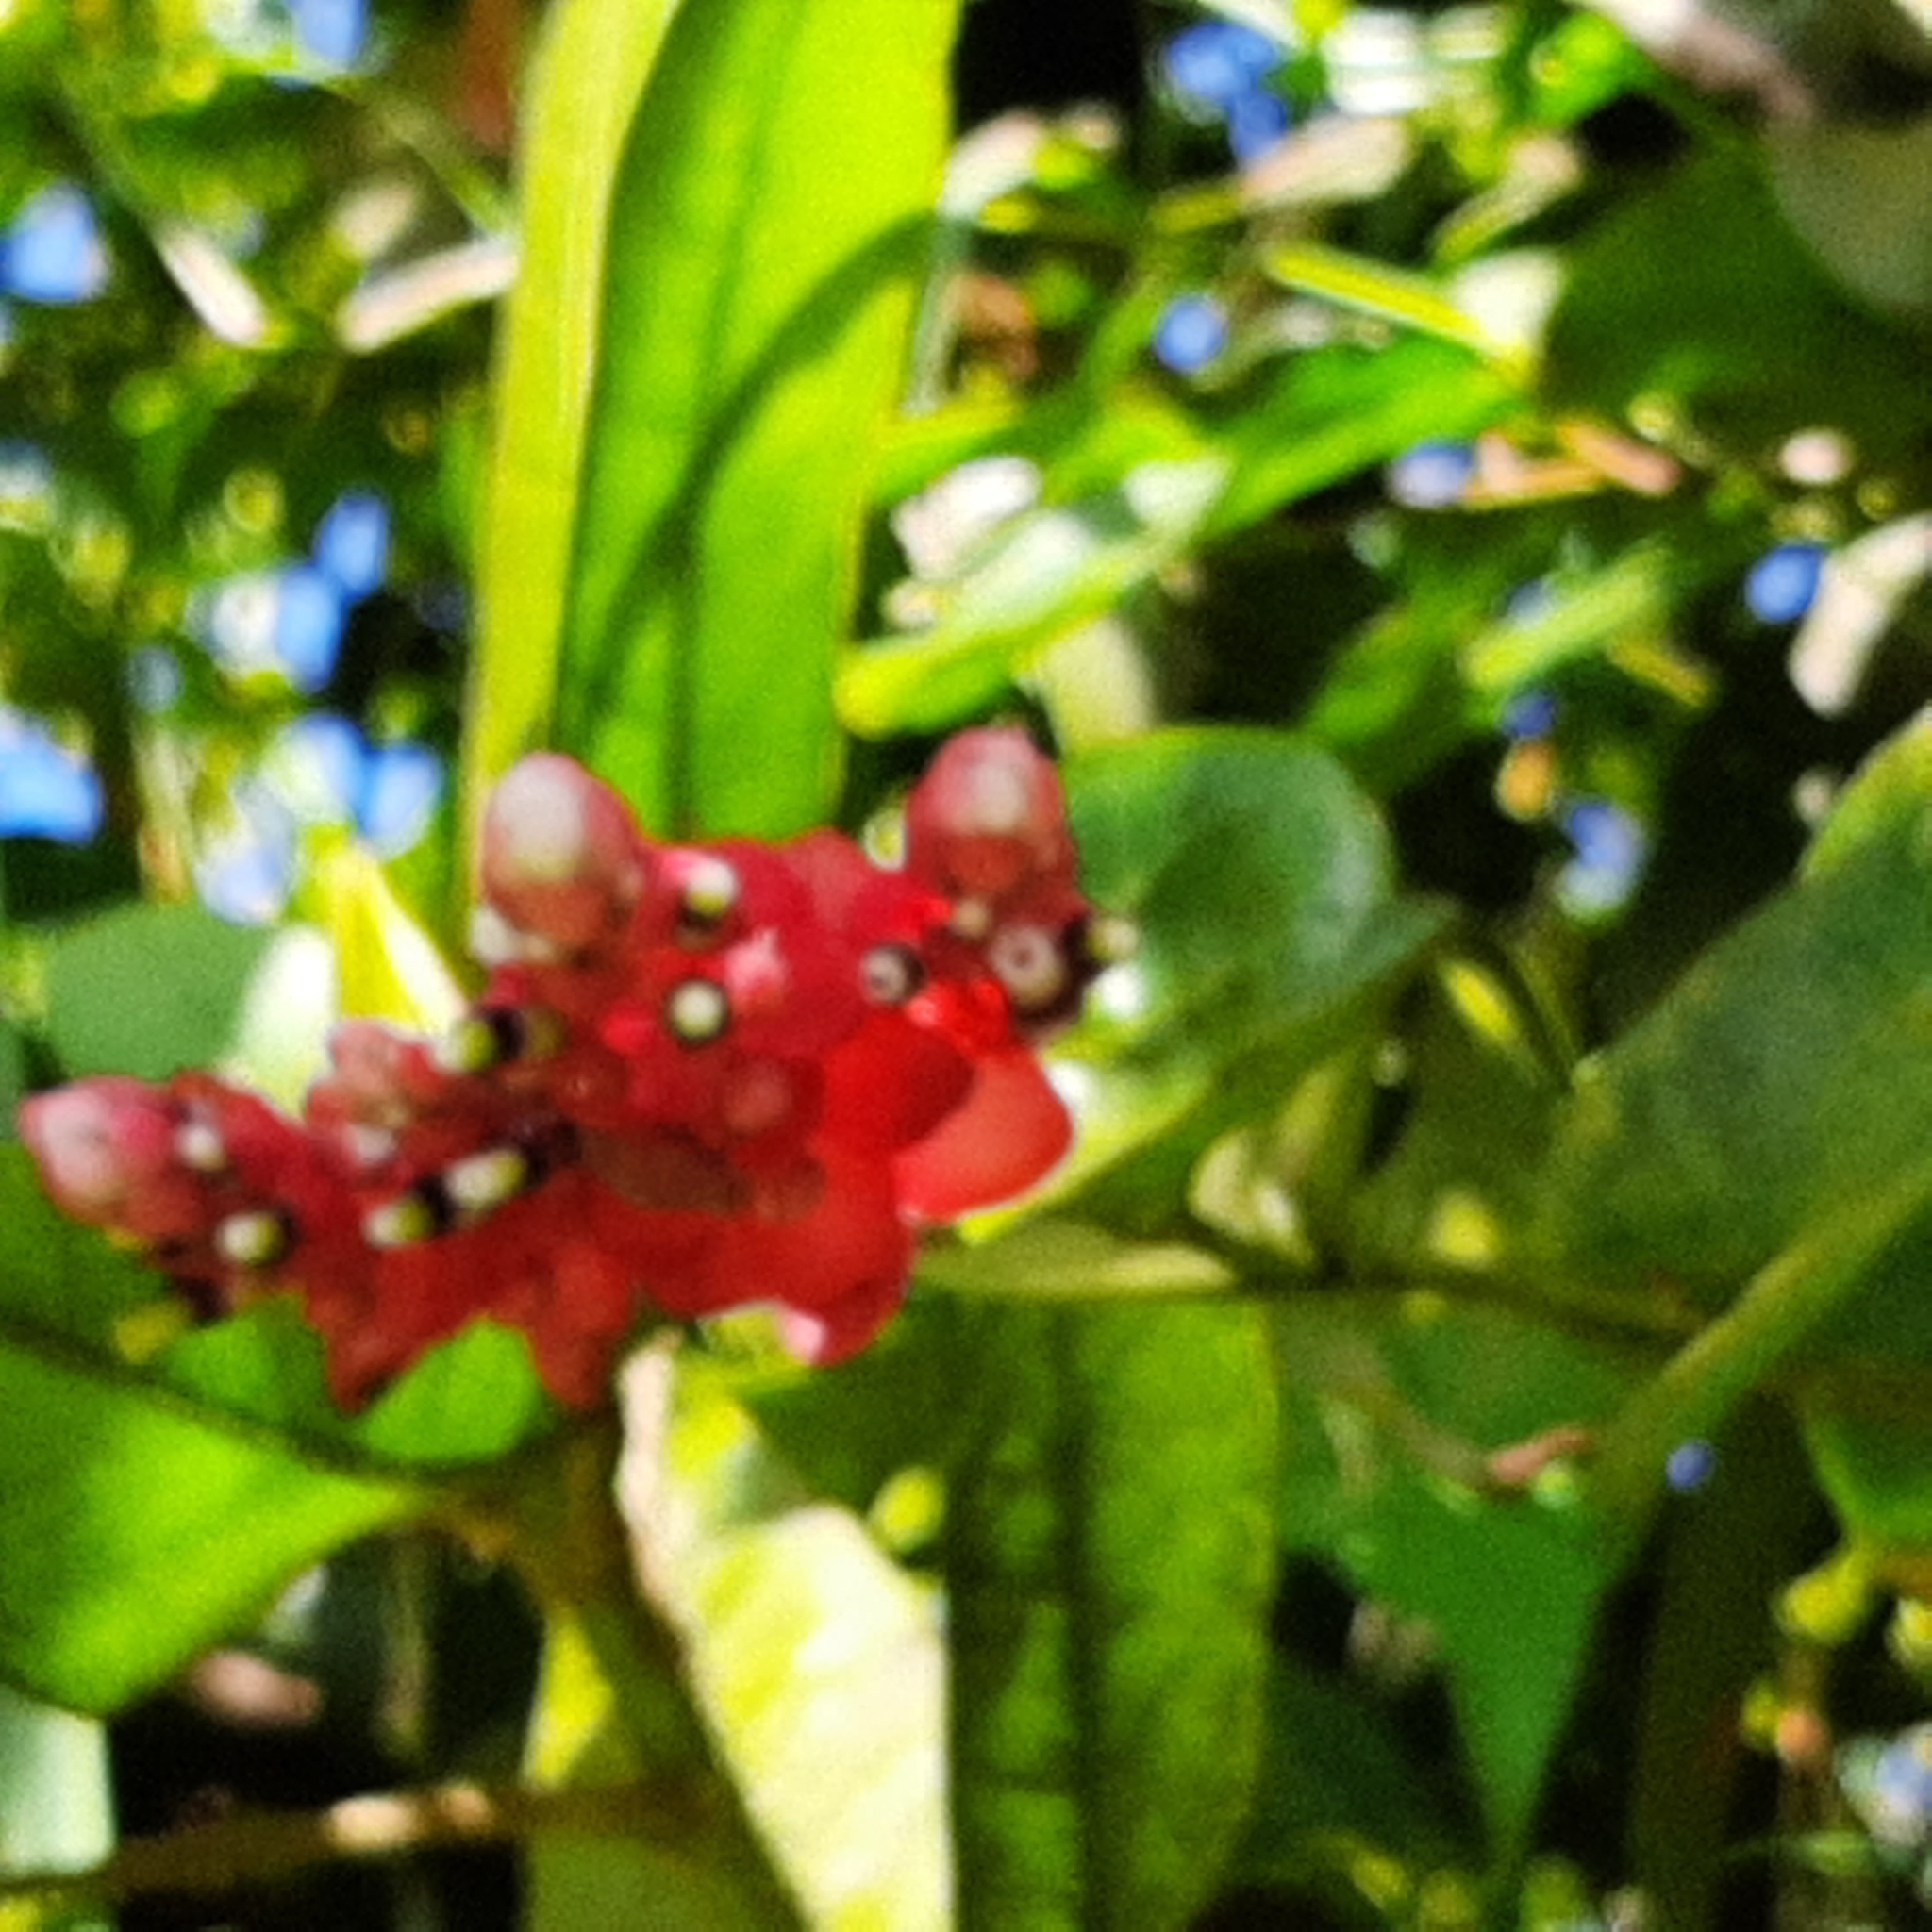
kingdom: Plantae
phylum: Tracheophyta
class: Magnoliopsida
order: Ericales
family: Ericaceae
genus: Cavendishia
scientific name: Cavendishia complectens
